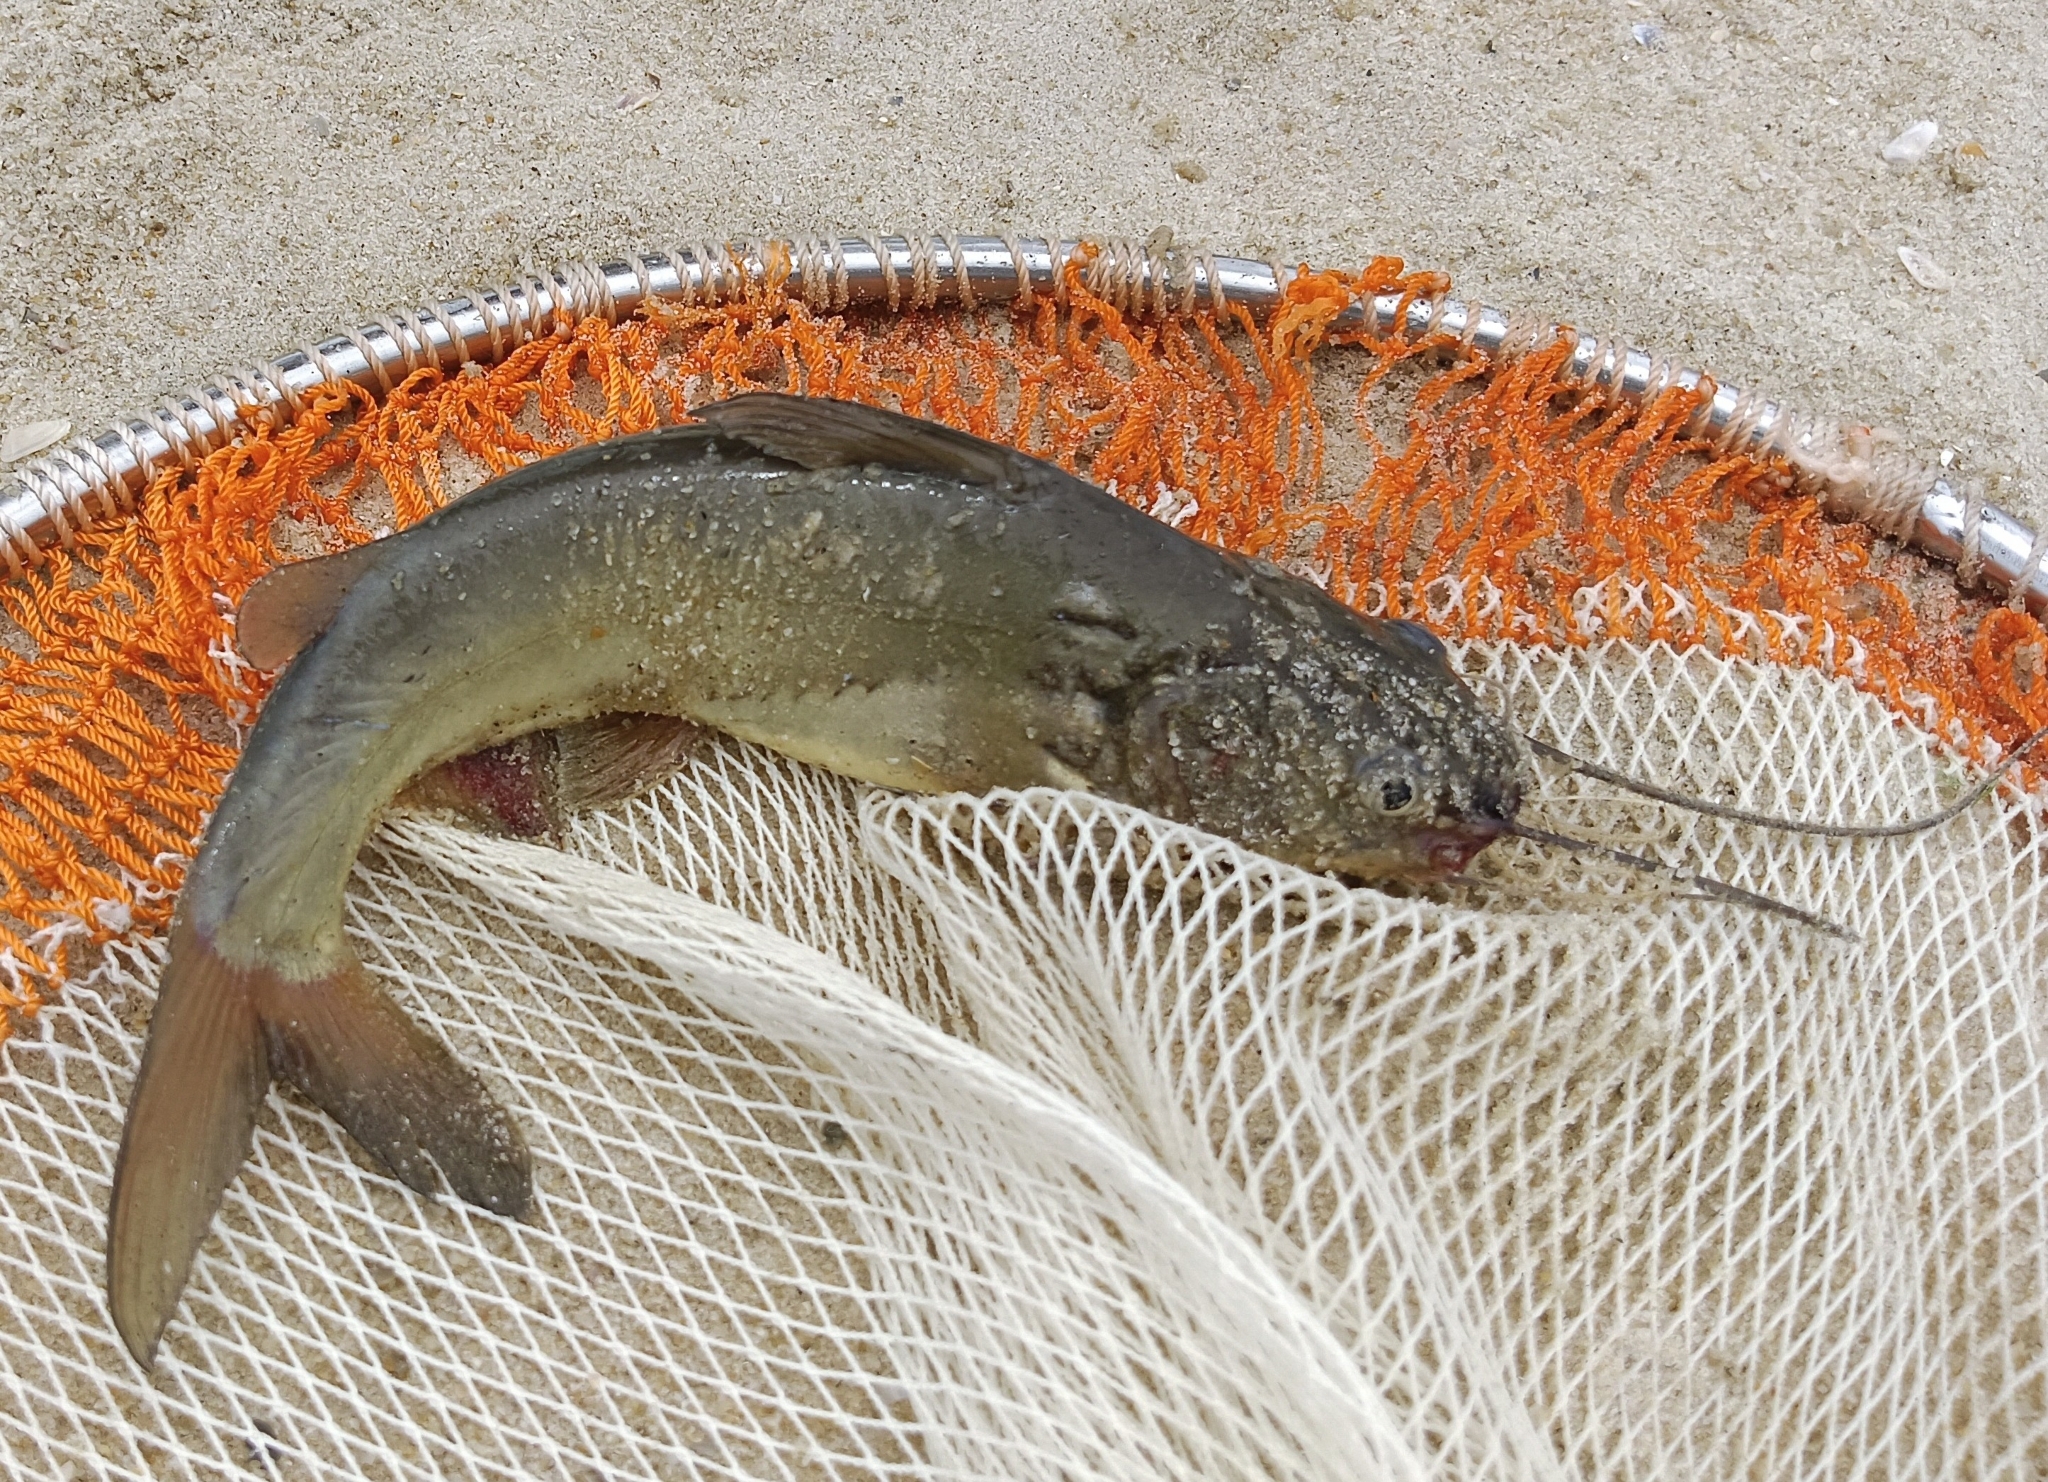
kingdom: Animalia
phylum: Chordata
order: Siluriformes
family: Bagridae
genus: Mystus
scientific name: Mystus gulio
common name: Long whiskers catfish
